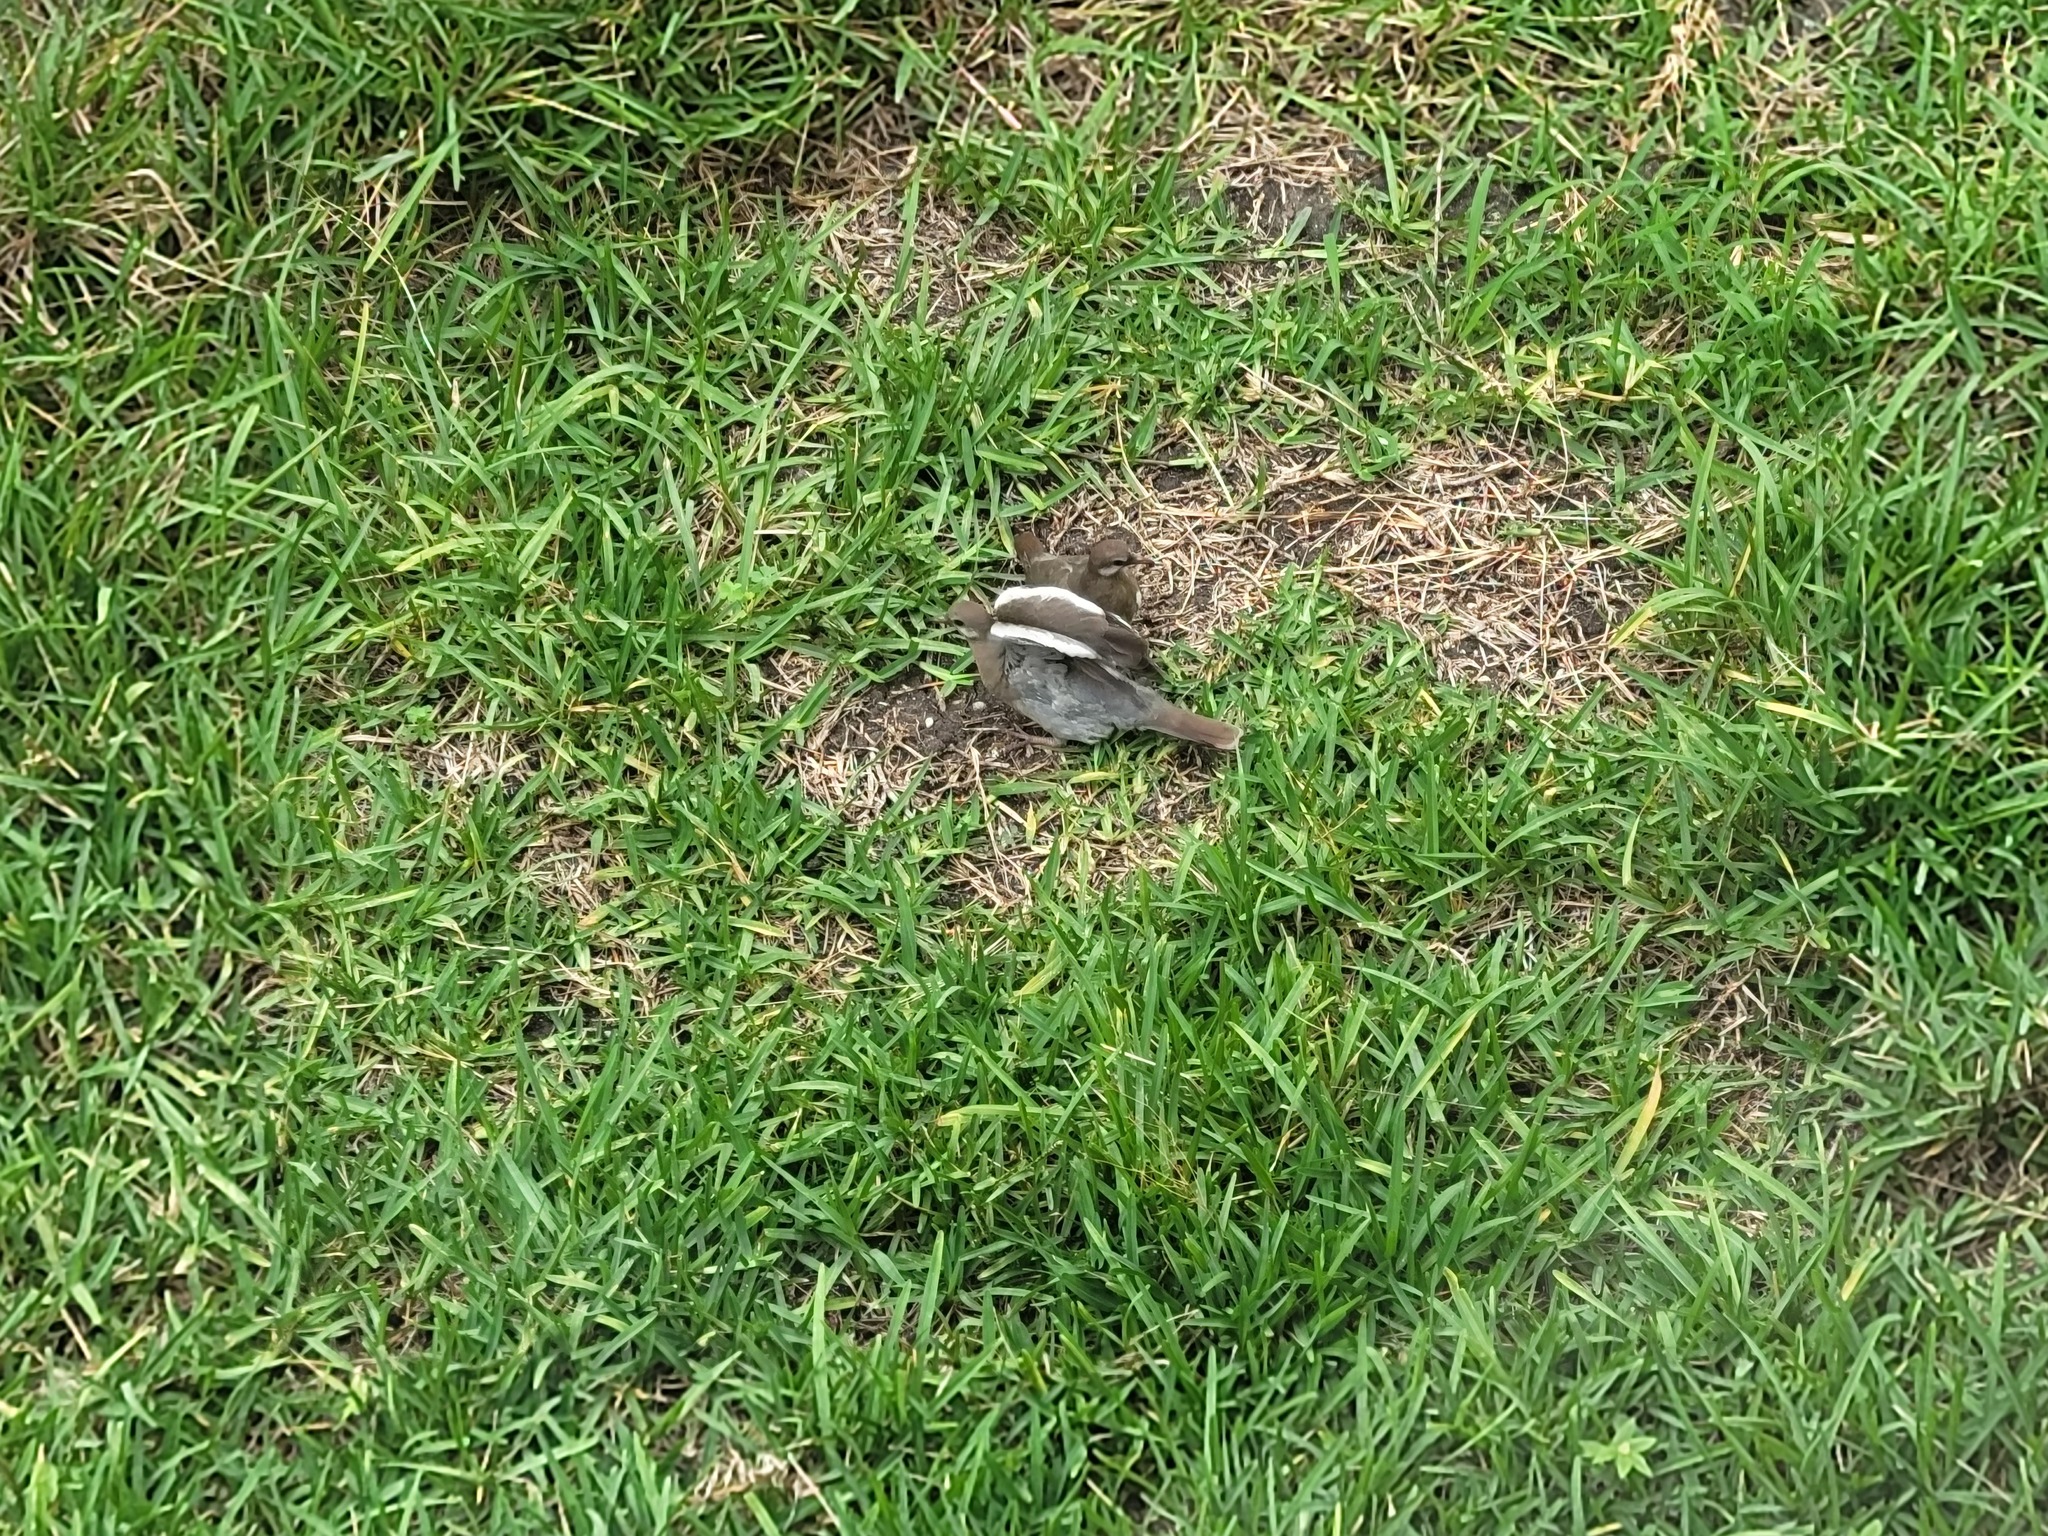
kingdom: Animalia
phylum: Chordata
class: Aves
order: Columbiformes
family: Columbidae
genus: Zenaida
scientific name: Zenaida asiatica
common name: White-winged dove
